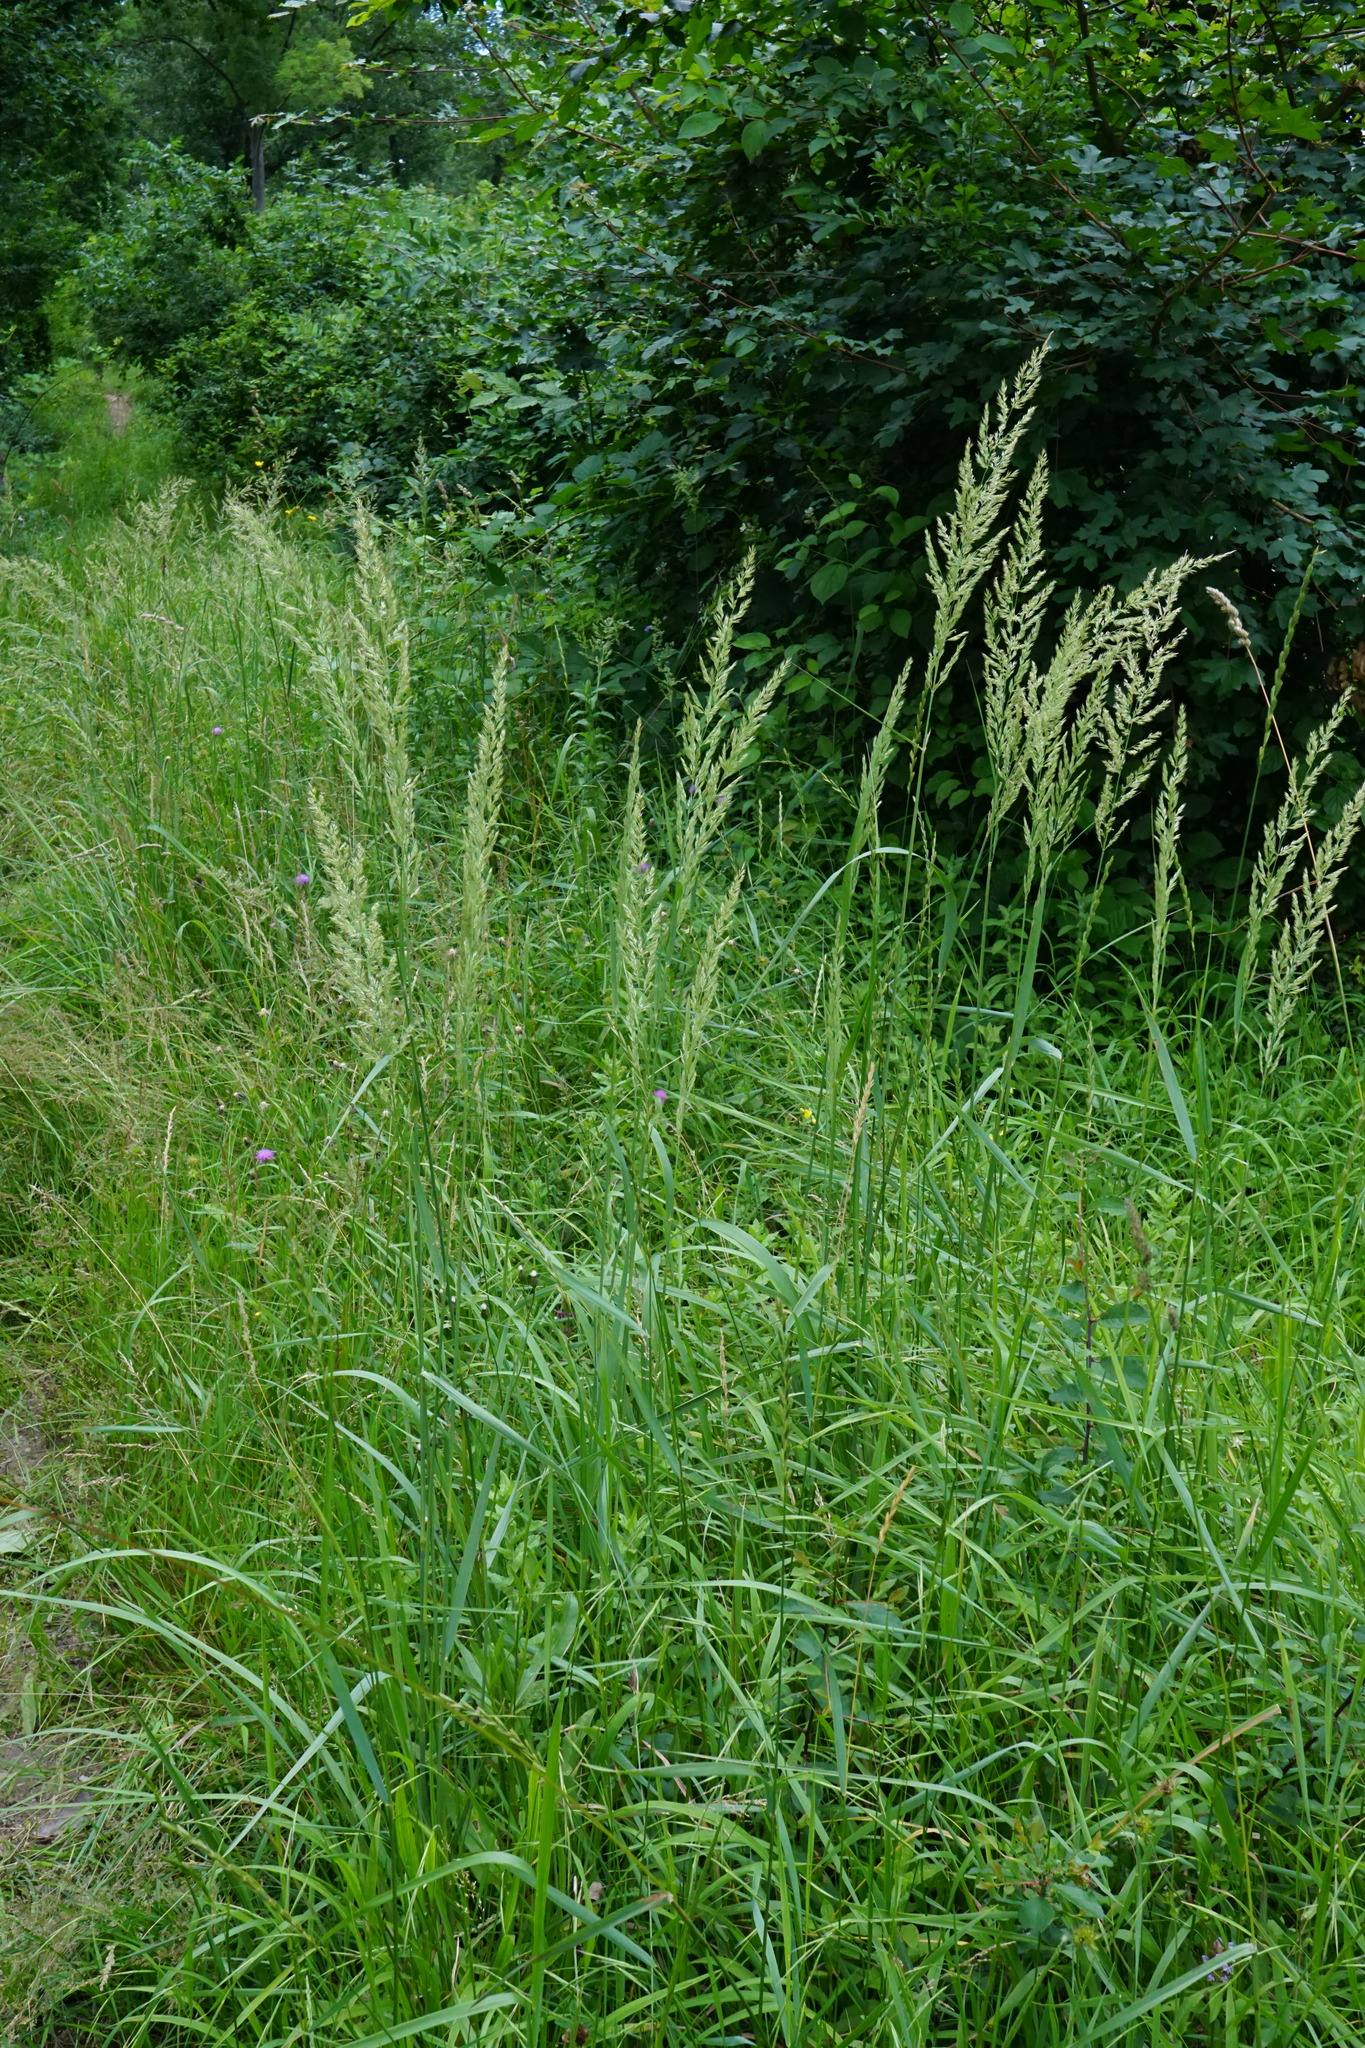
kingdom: Plantae
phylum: Tracheophyta
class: Liliopsida
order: Poales
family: Poaceae
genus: Calamagrostis
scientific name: Calamagrostis epigejos
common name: Wood small-reed
